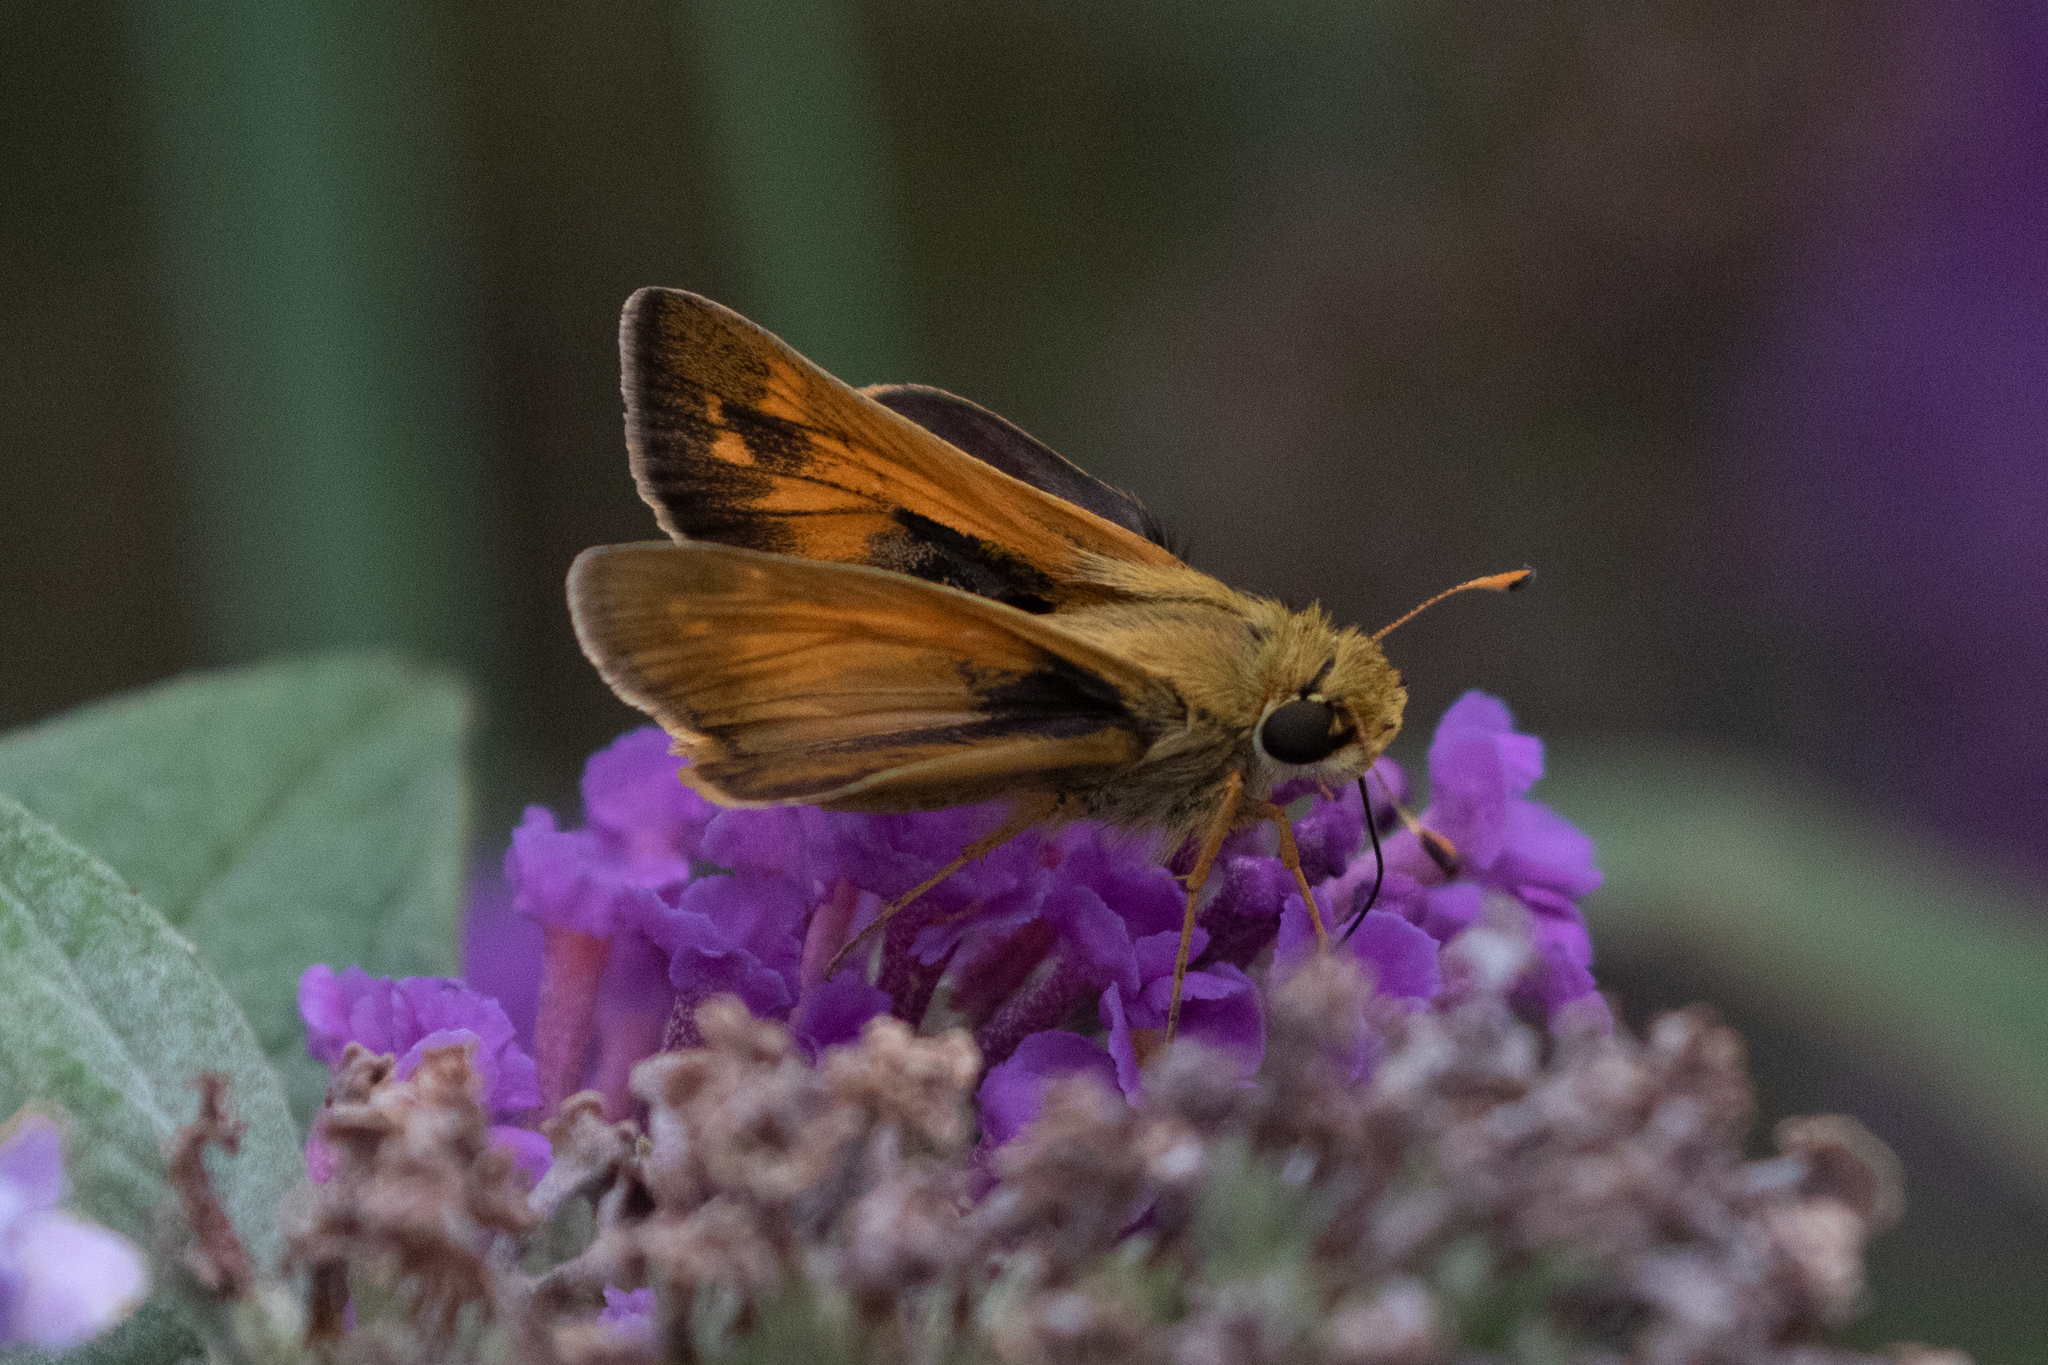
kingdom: Animalia
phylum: Arthropoda
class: Insecta
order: Lepidoptera
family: Hesperiidae
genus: Atalopedes
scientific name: Atalopedes
